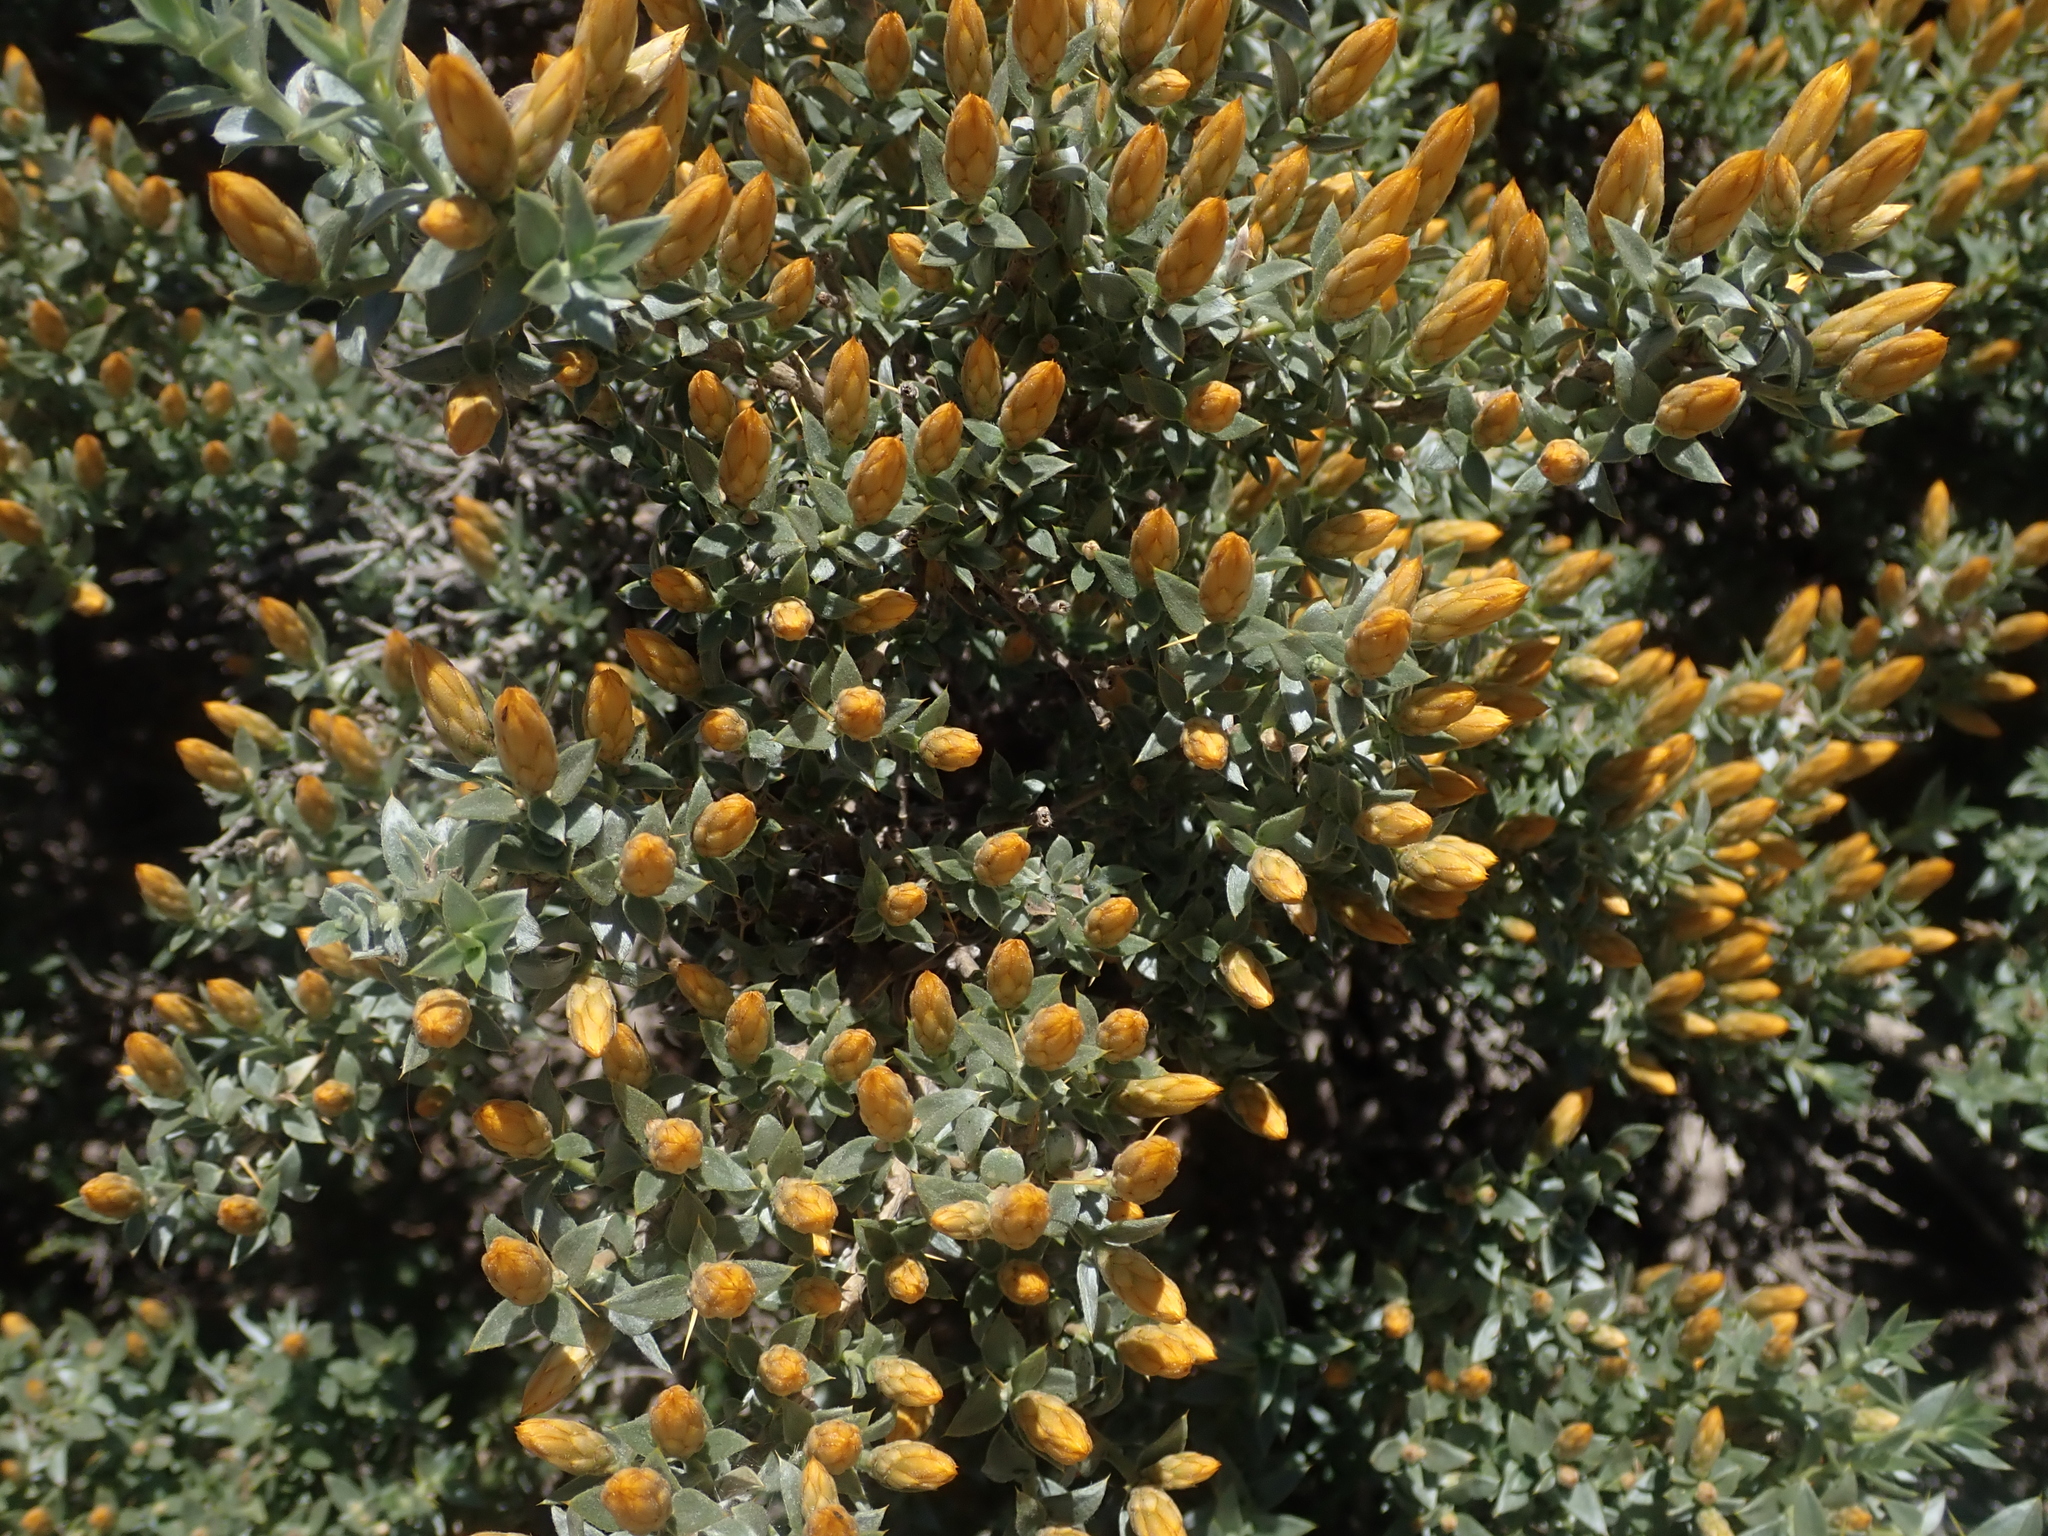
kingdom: Plantae
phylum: Tracheophyta
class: Magnoliopsida
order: Asterales
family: Asteraceae
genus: Chuquiraga
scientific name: Chuquiraga oppositifolia
